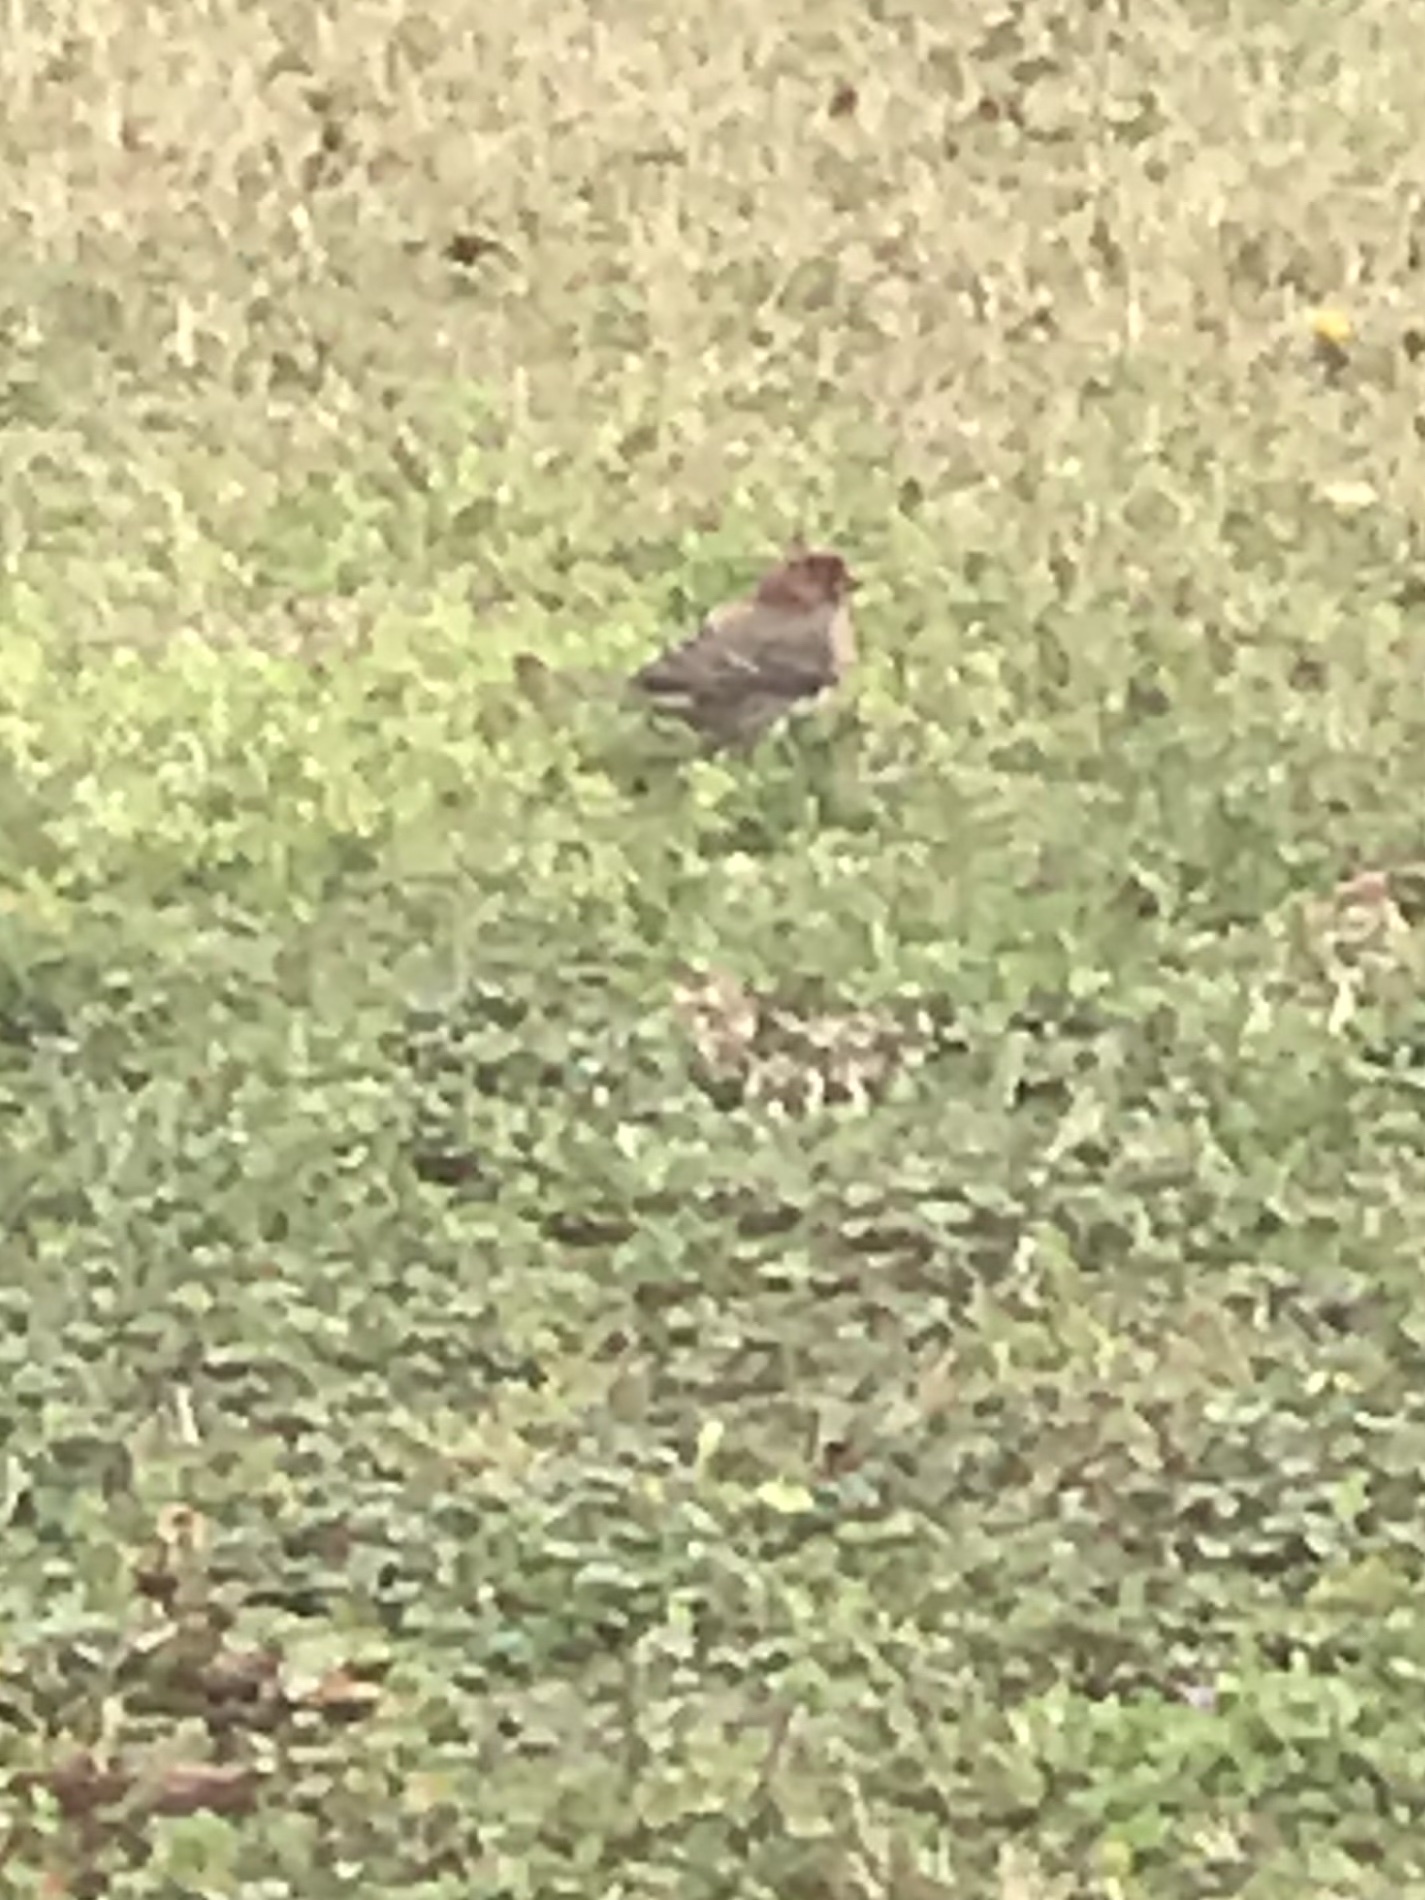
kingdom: Animalia
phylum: Chordata
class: Aves
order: Passeriformes
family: Fringillidae
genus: Haemorhous
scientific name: Haemorhous mexicanus
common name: House finch
